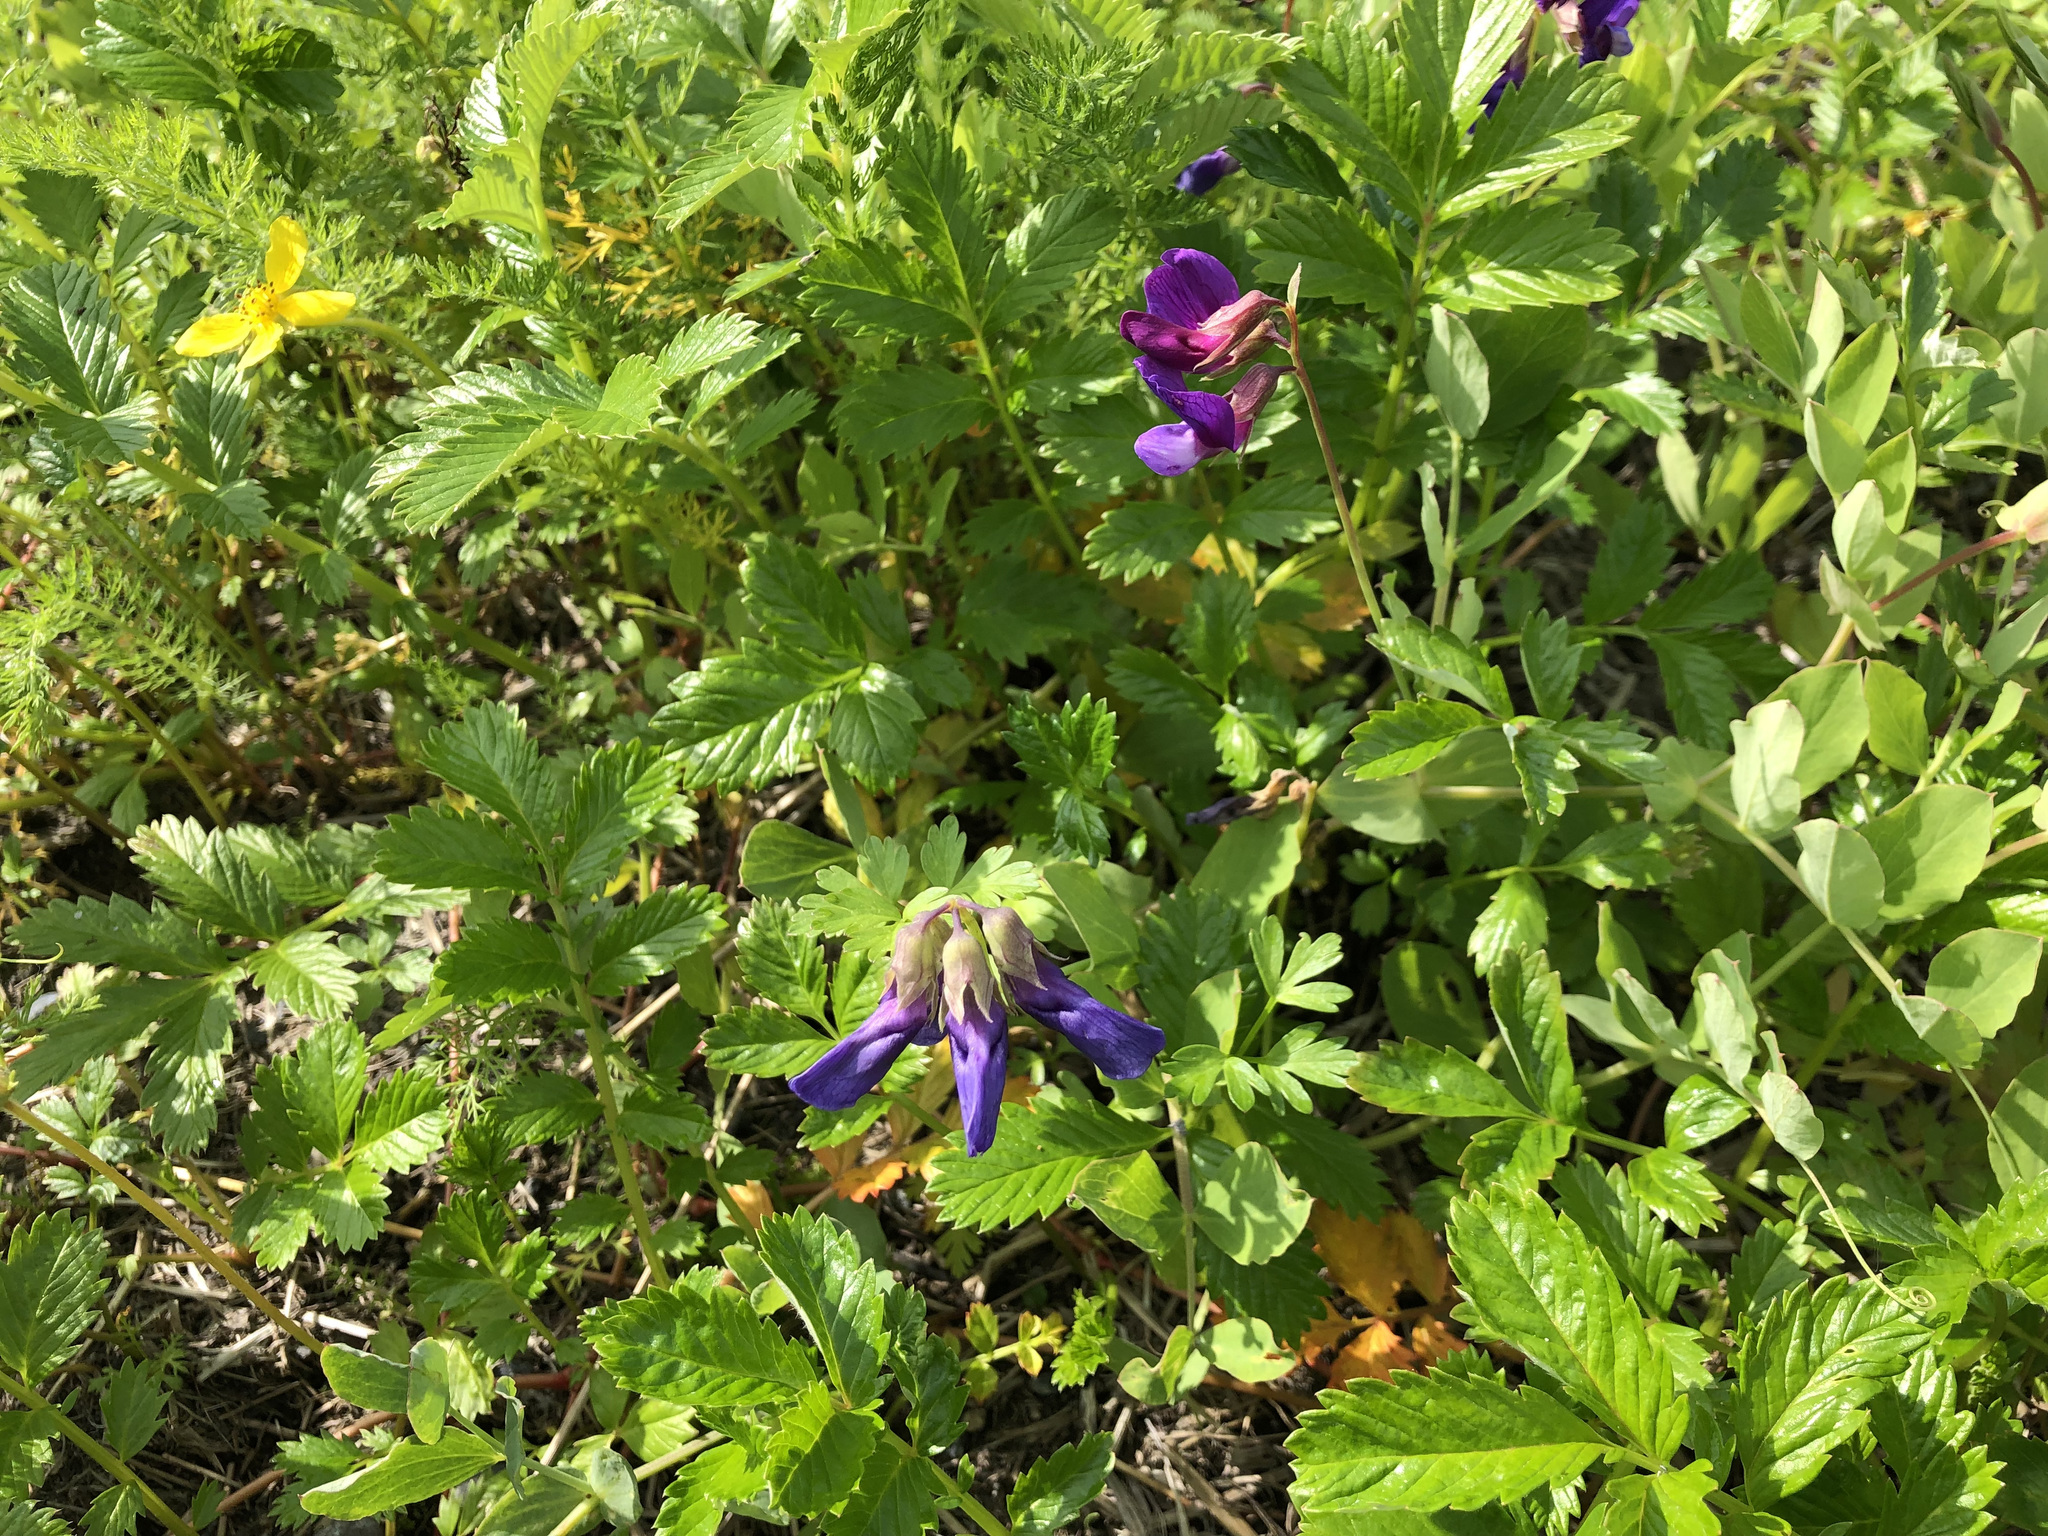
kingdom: Plantae
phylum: Tracheophyta
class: Magnoliopsida
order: Fabales
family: Fabaceae
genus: Lathyrus
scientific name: Lathyrus japonicus
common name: Sea pea
